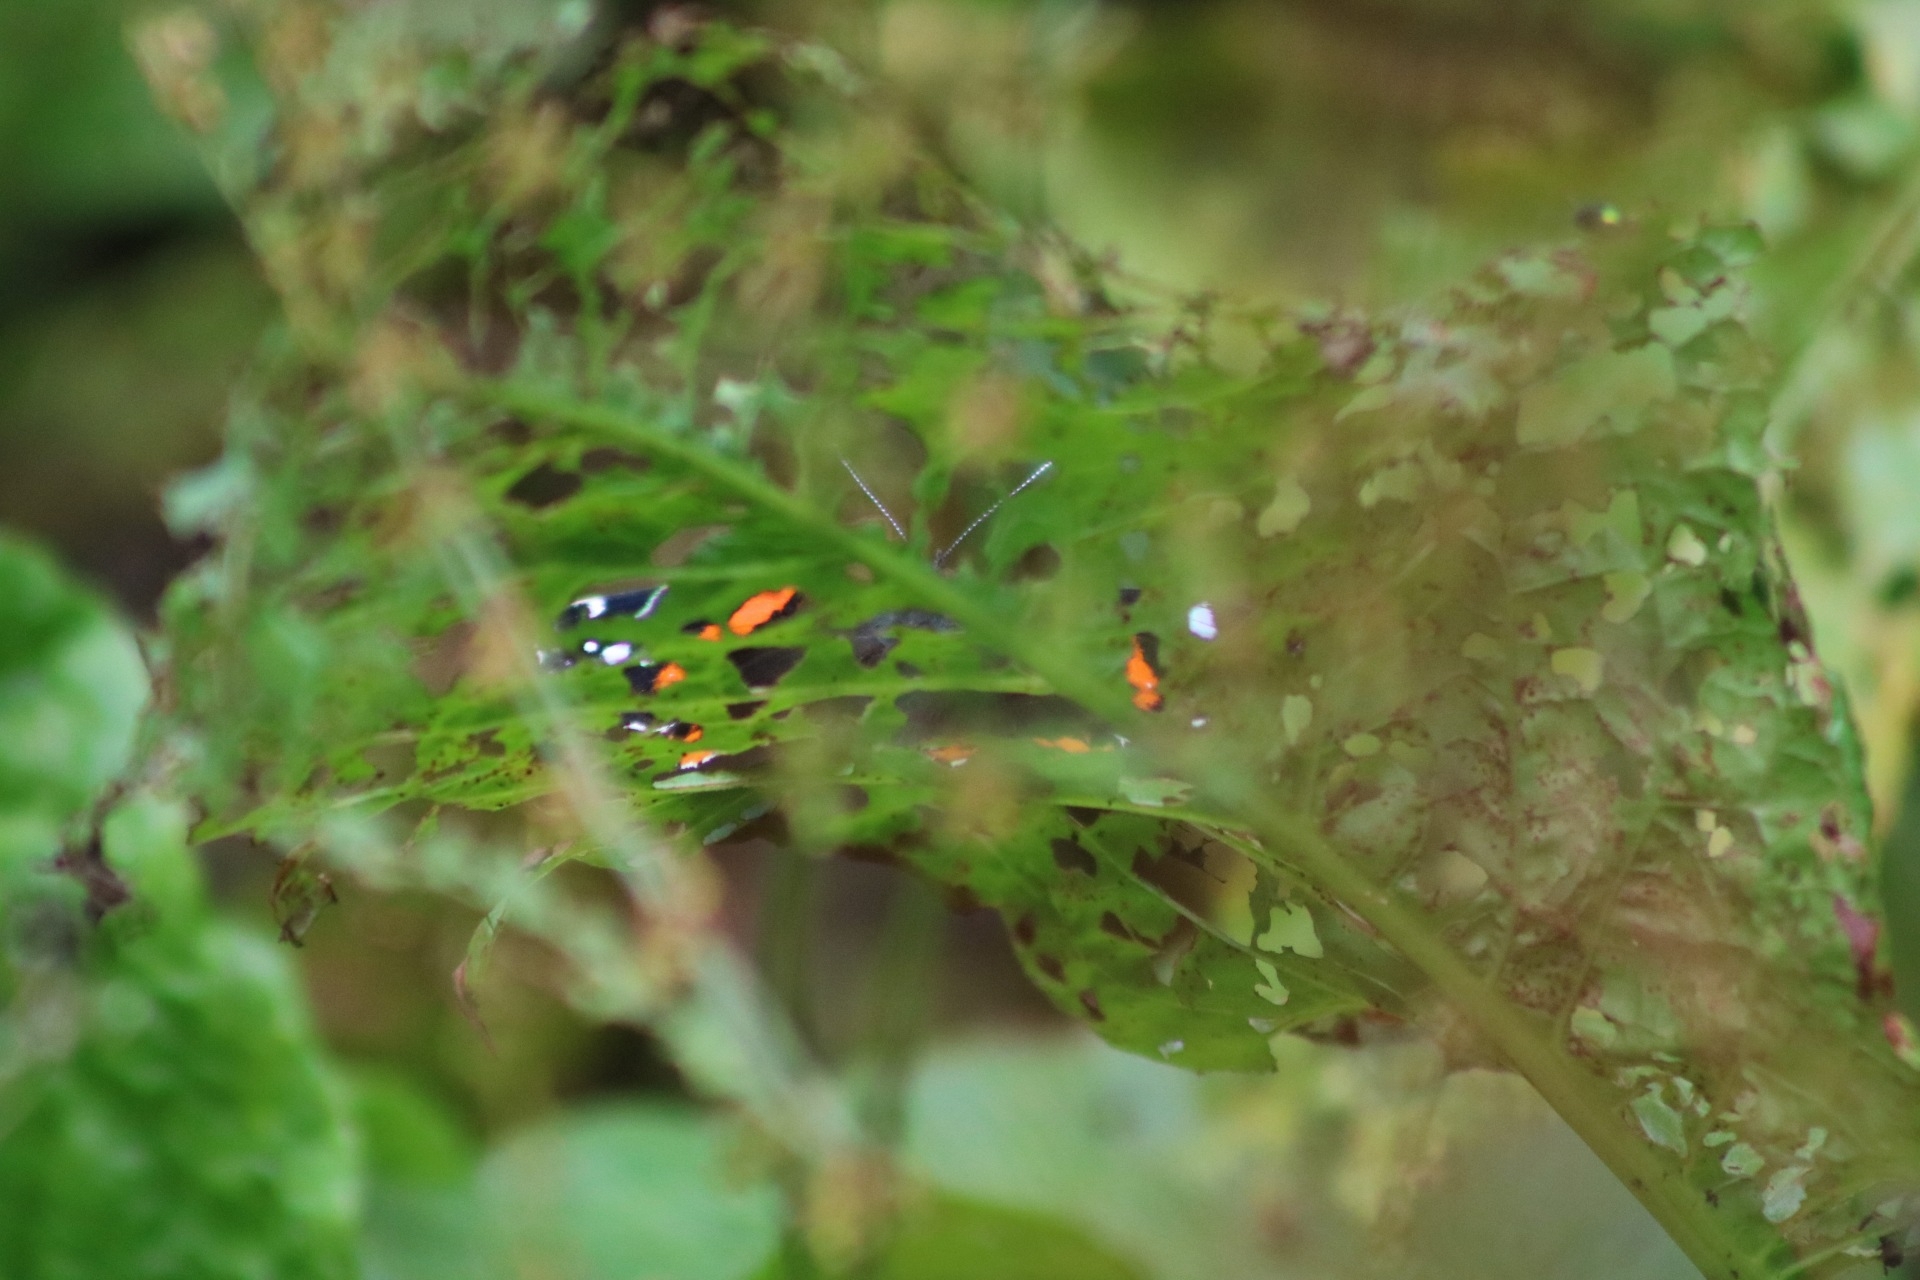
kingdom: Animalia
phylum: Arthropoda
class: Insecta
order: Lepidoptera
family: Nymphalidae
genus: Vanessa
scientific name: Vanessa atalanta
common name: Red admiral
